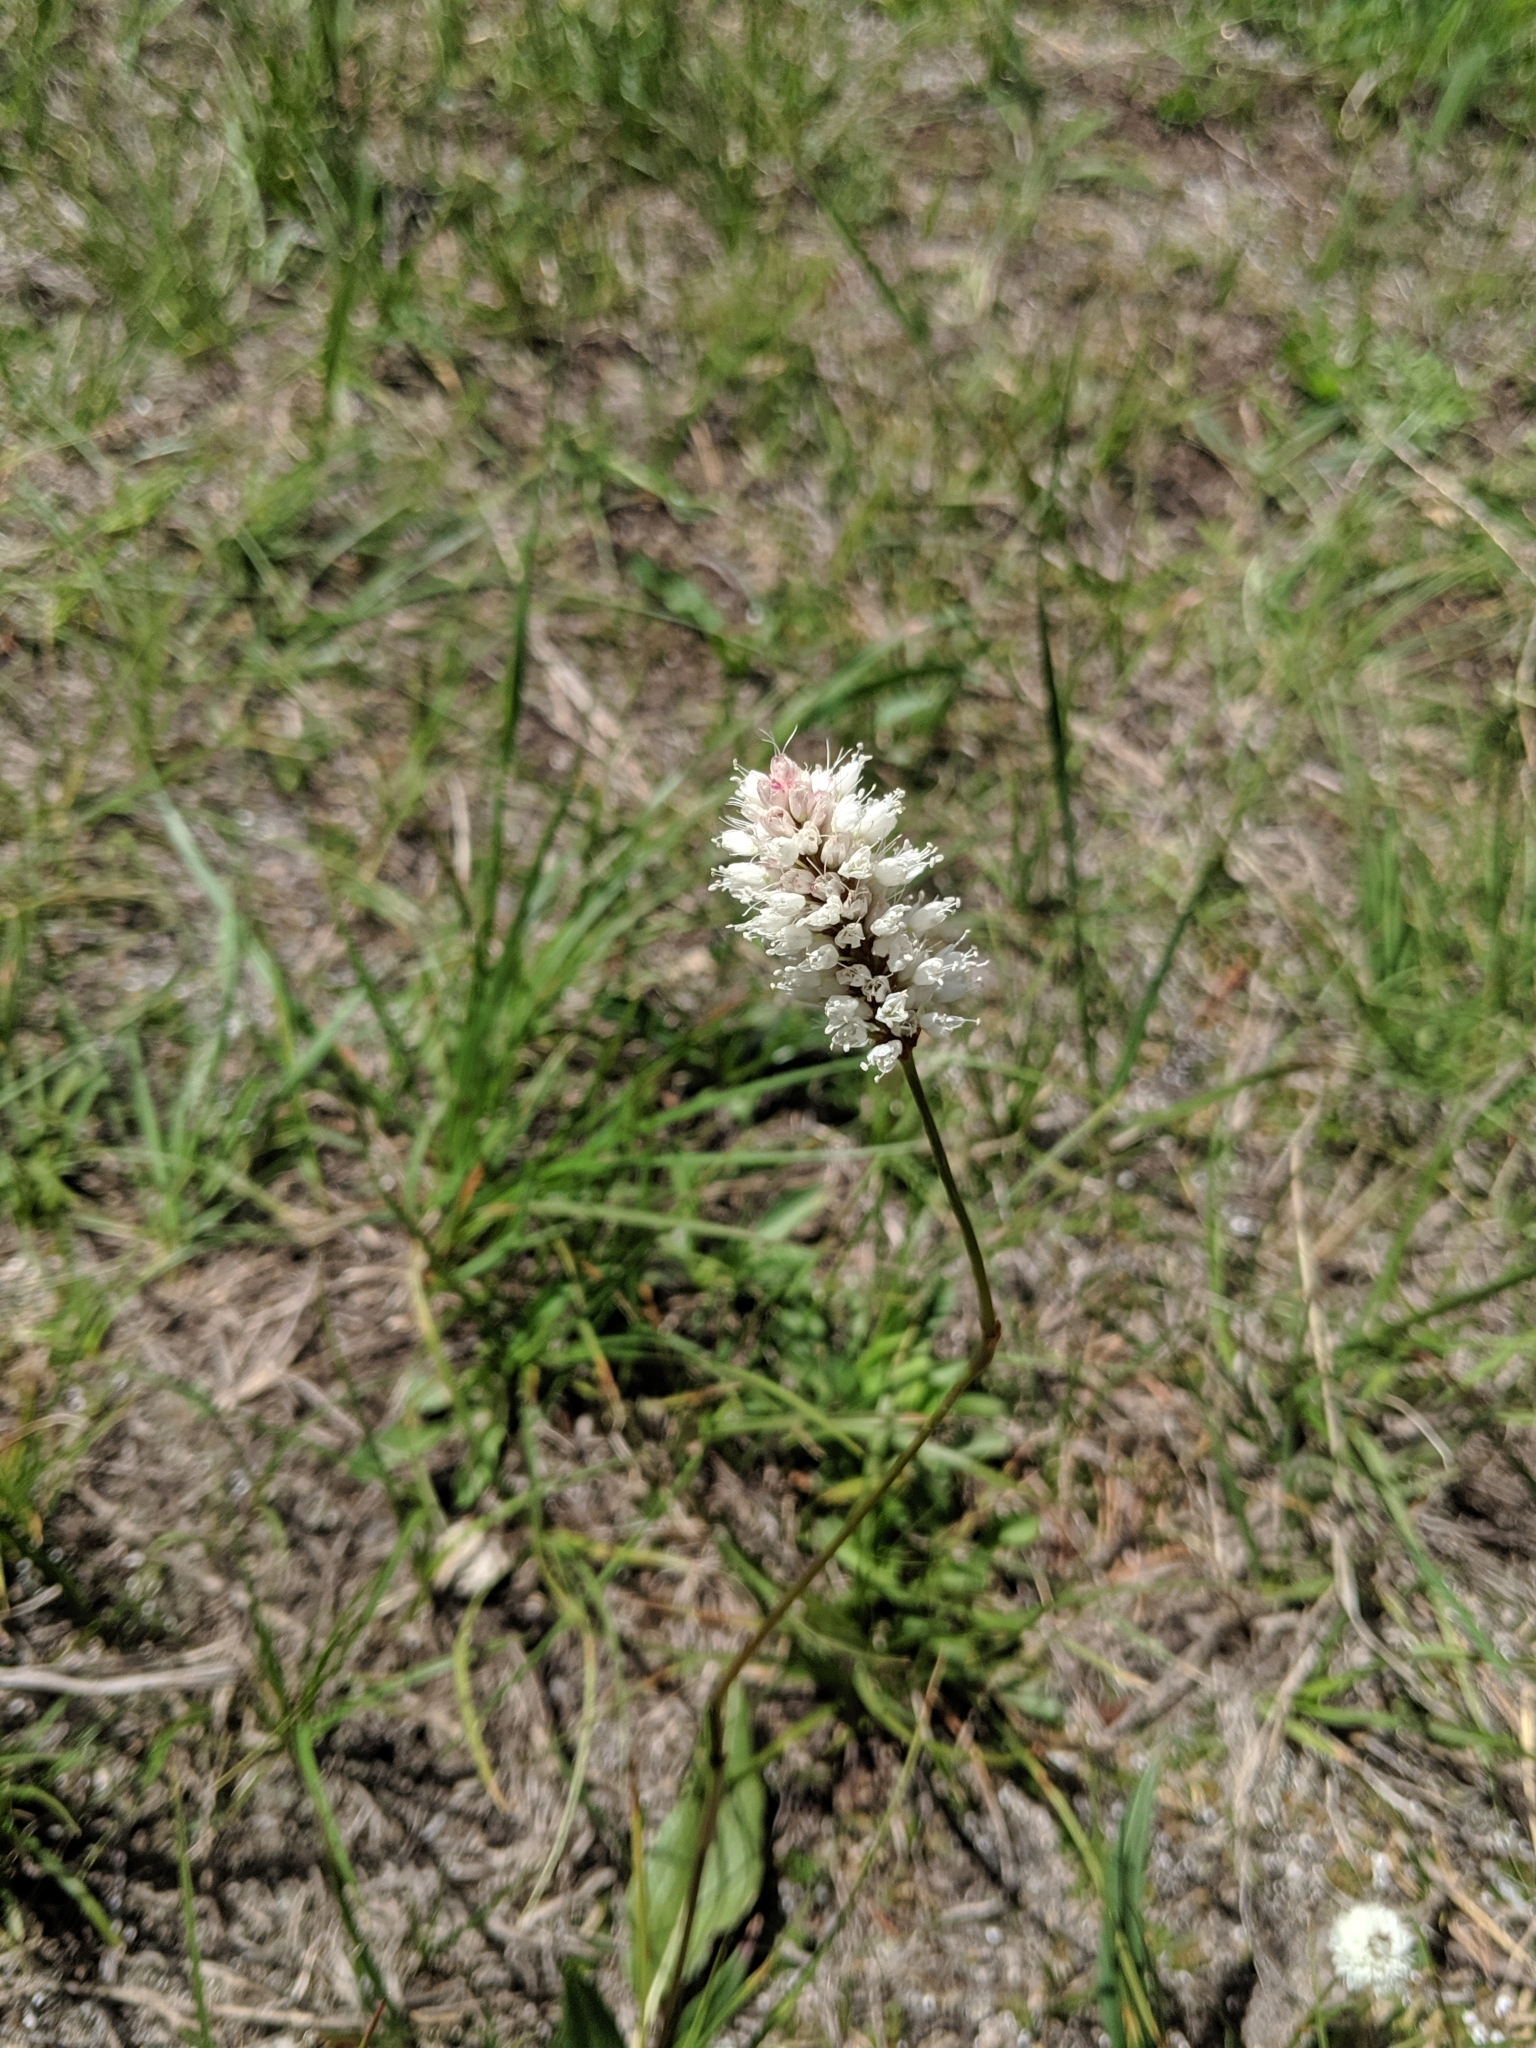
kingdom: Plantae
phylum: Tracheophyta
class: Magnoliopsida
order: Caryophyllales
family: Polygonaceae
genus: Bistorta
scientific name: Bistorta bistortoides
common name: American bistort
